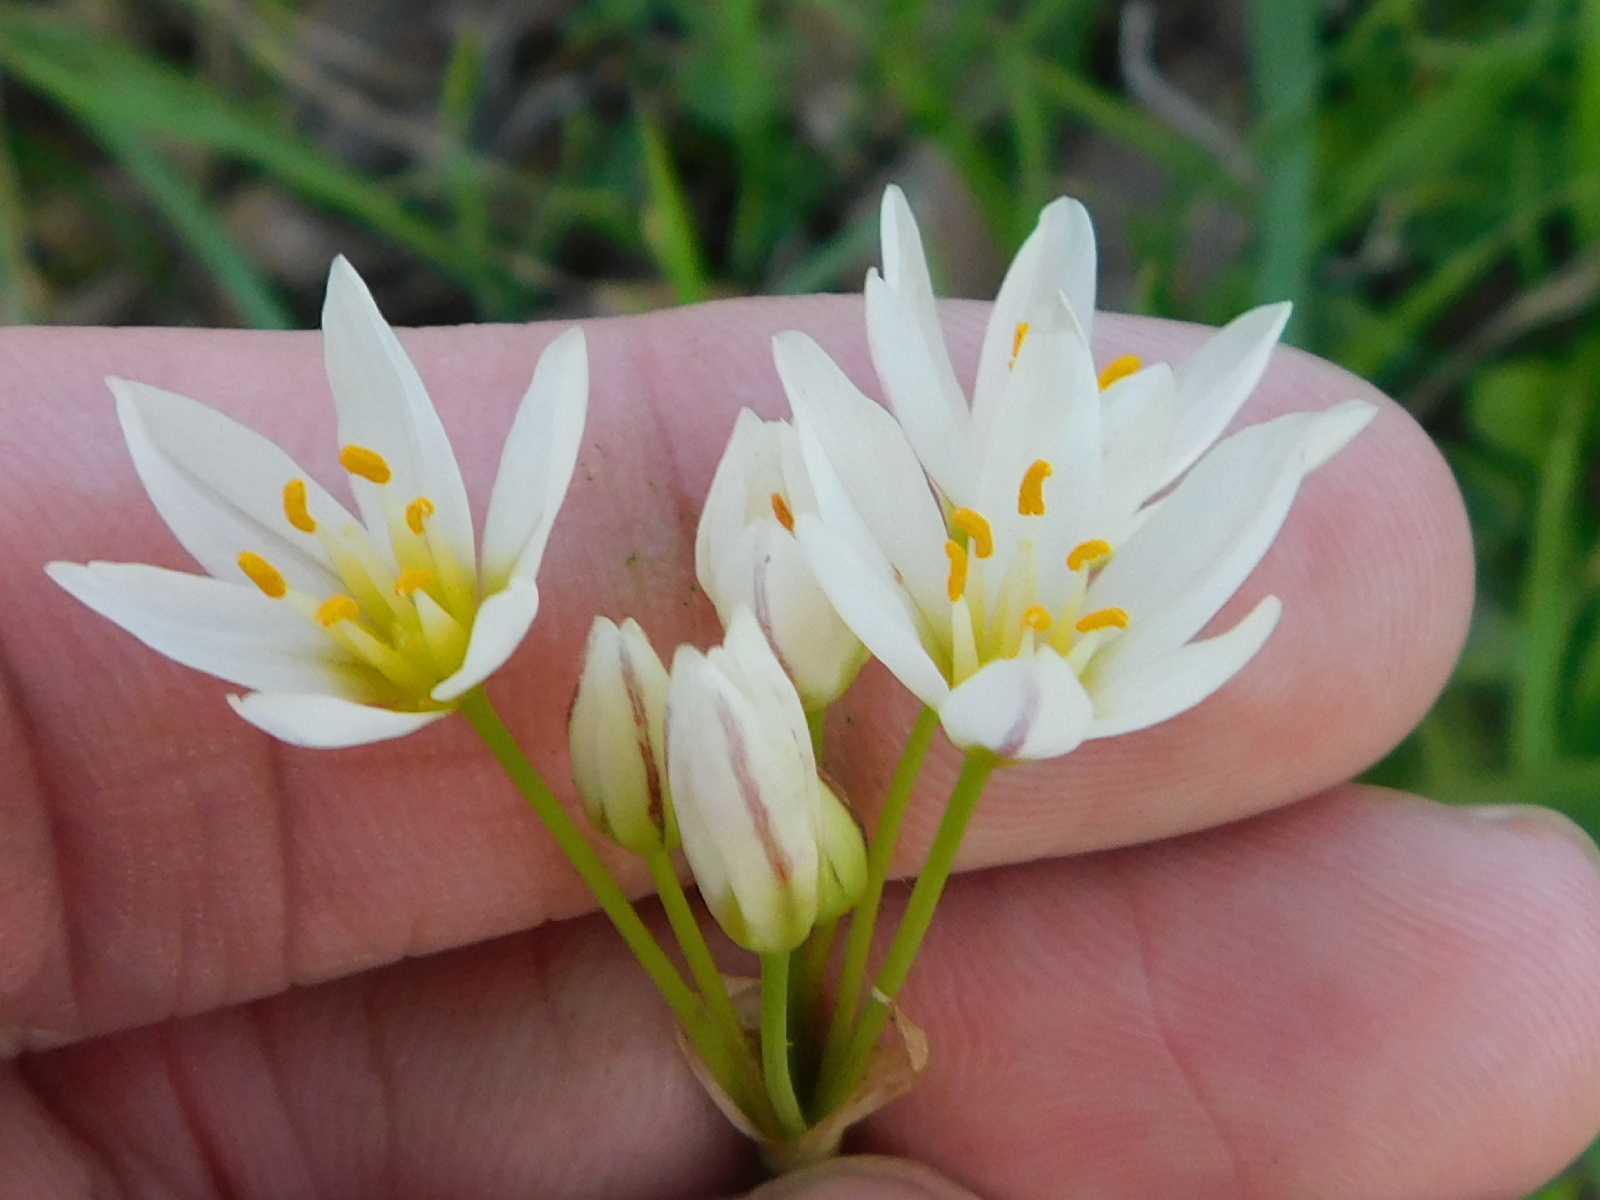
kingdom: Plantae
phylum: Tracheophyta
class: Liliopsida
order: Asparagales
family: Amaryllidaceae
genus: Nothoscordum
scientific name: Nothoscordum bivalve
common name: Crow-poison
